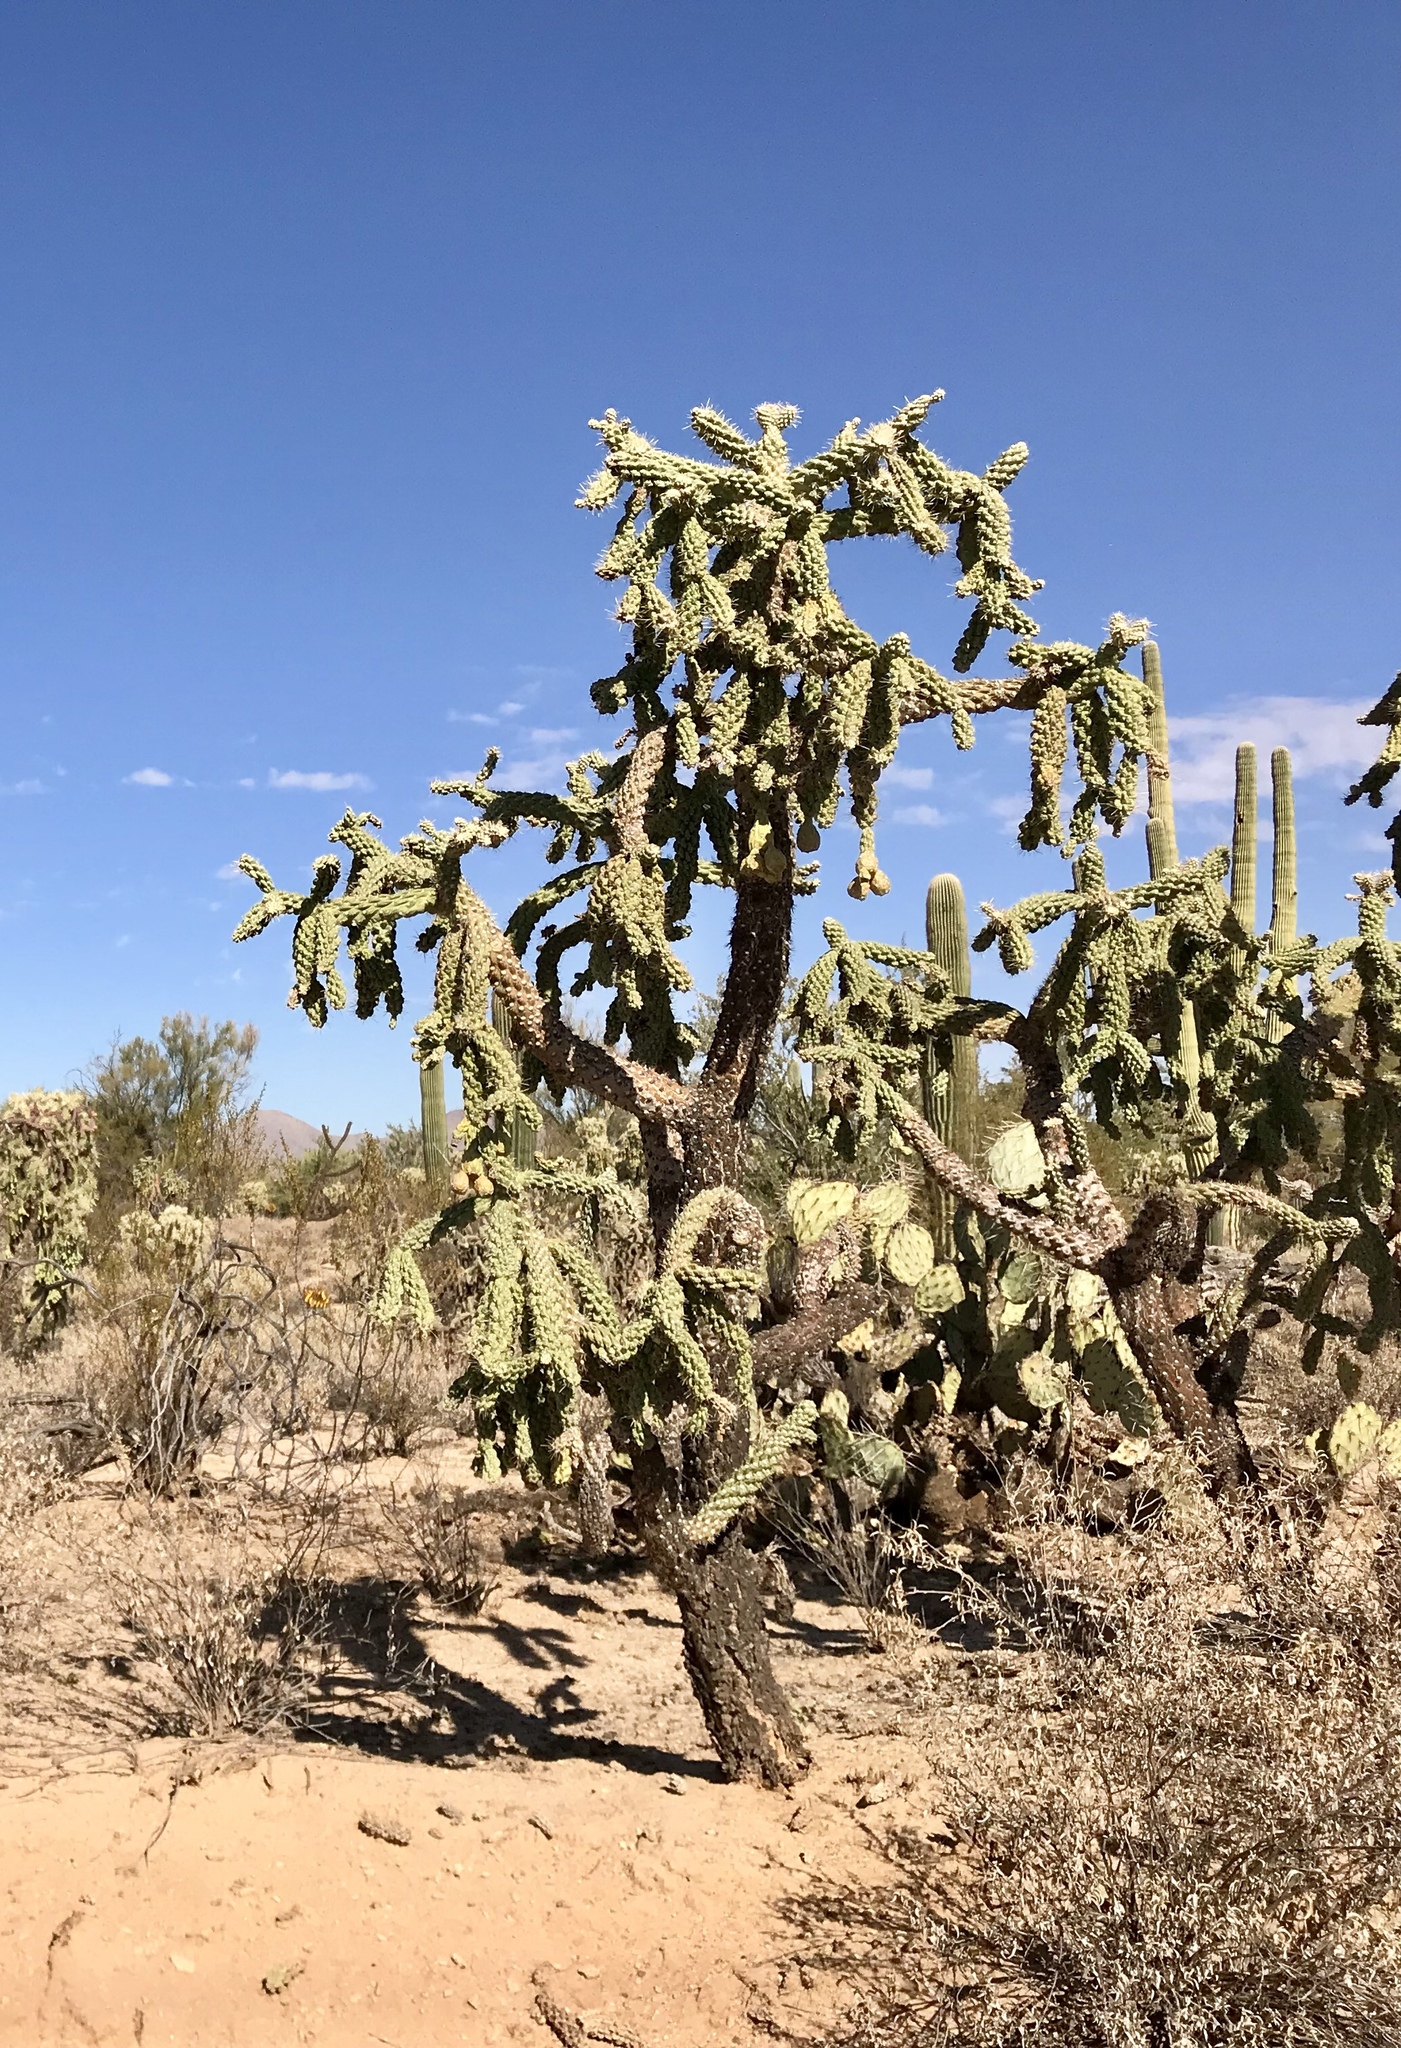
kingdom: Plantae
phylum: Tracheophyta
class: Magnoliopsida
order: Caryophyllales
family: Cactaceae
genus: Cylindropuntia
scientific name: Cylindropuntia fulgida
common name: Jumping cholla
